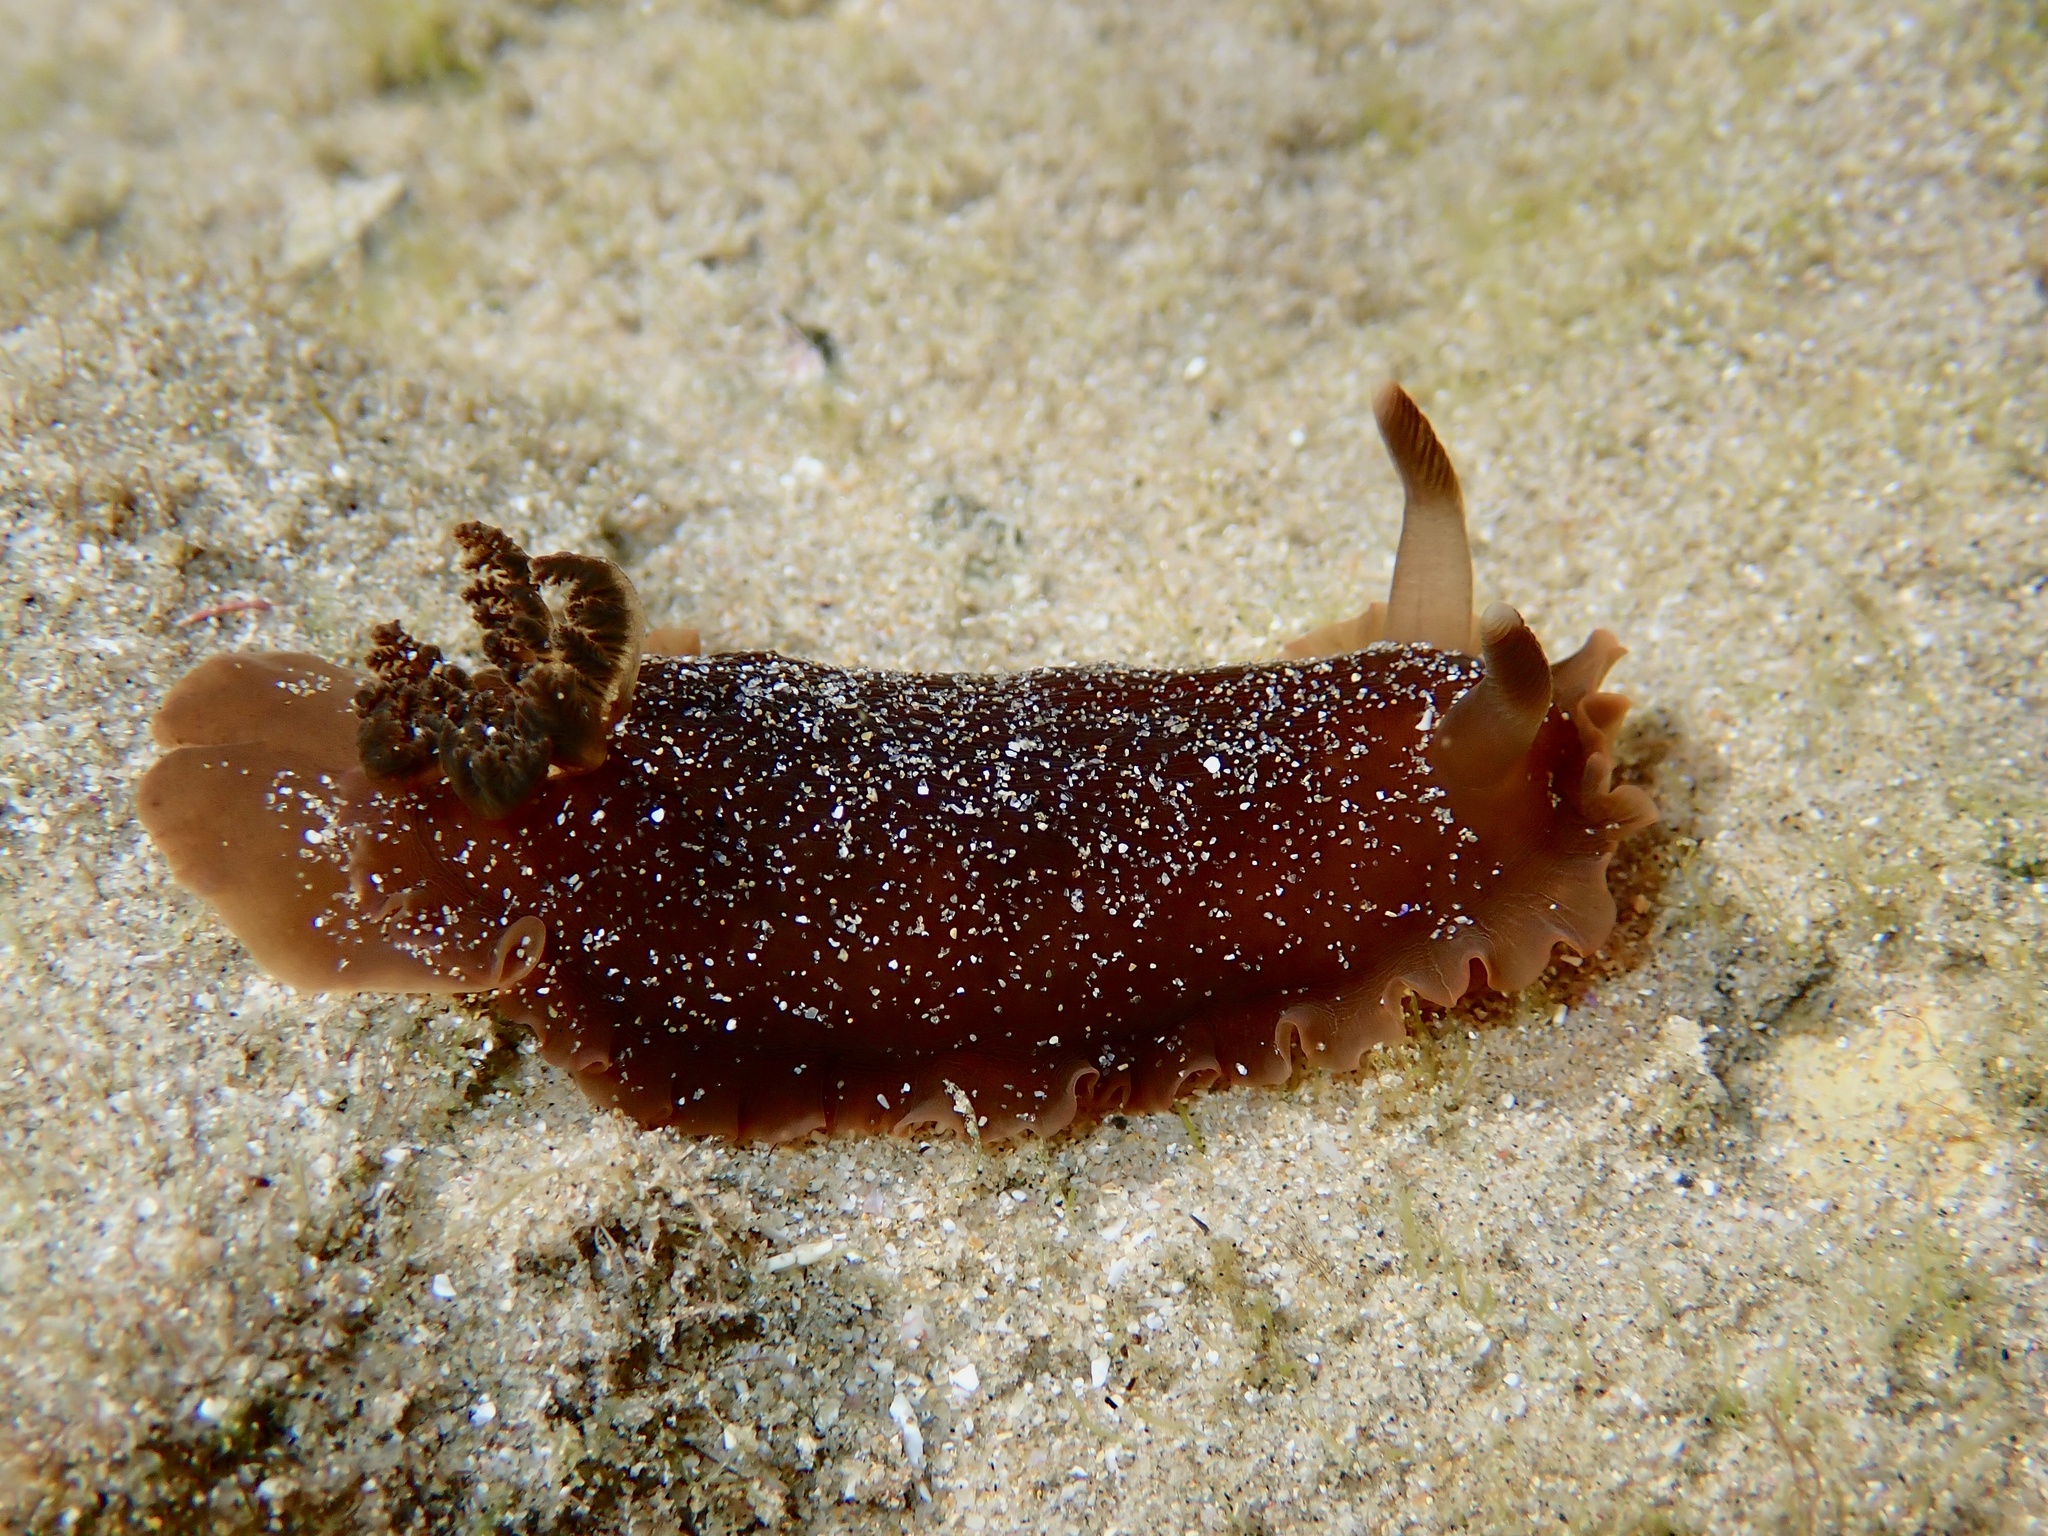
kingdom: Animalia
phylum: Mollusca
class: Gastropoda
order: Nudibranchia
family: Dendrodorididae
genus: Dendrodoris
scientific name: Dendrodoris fumata
